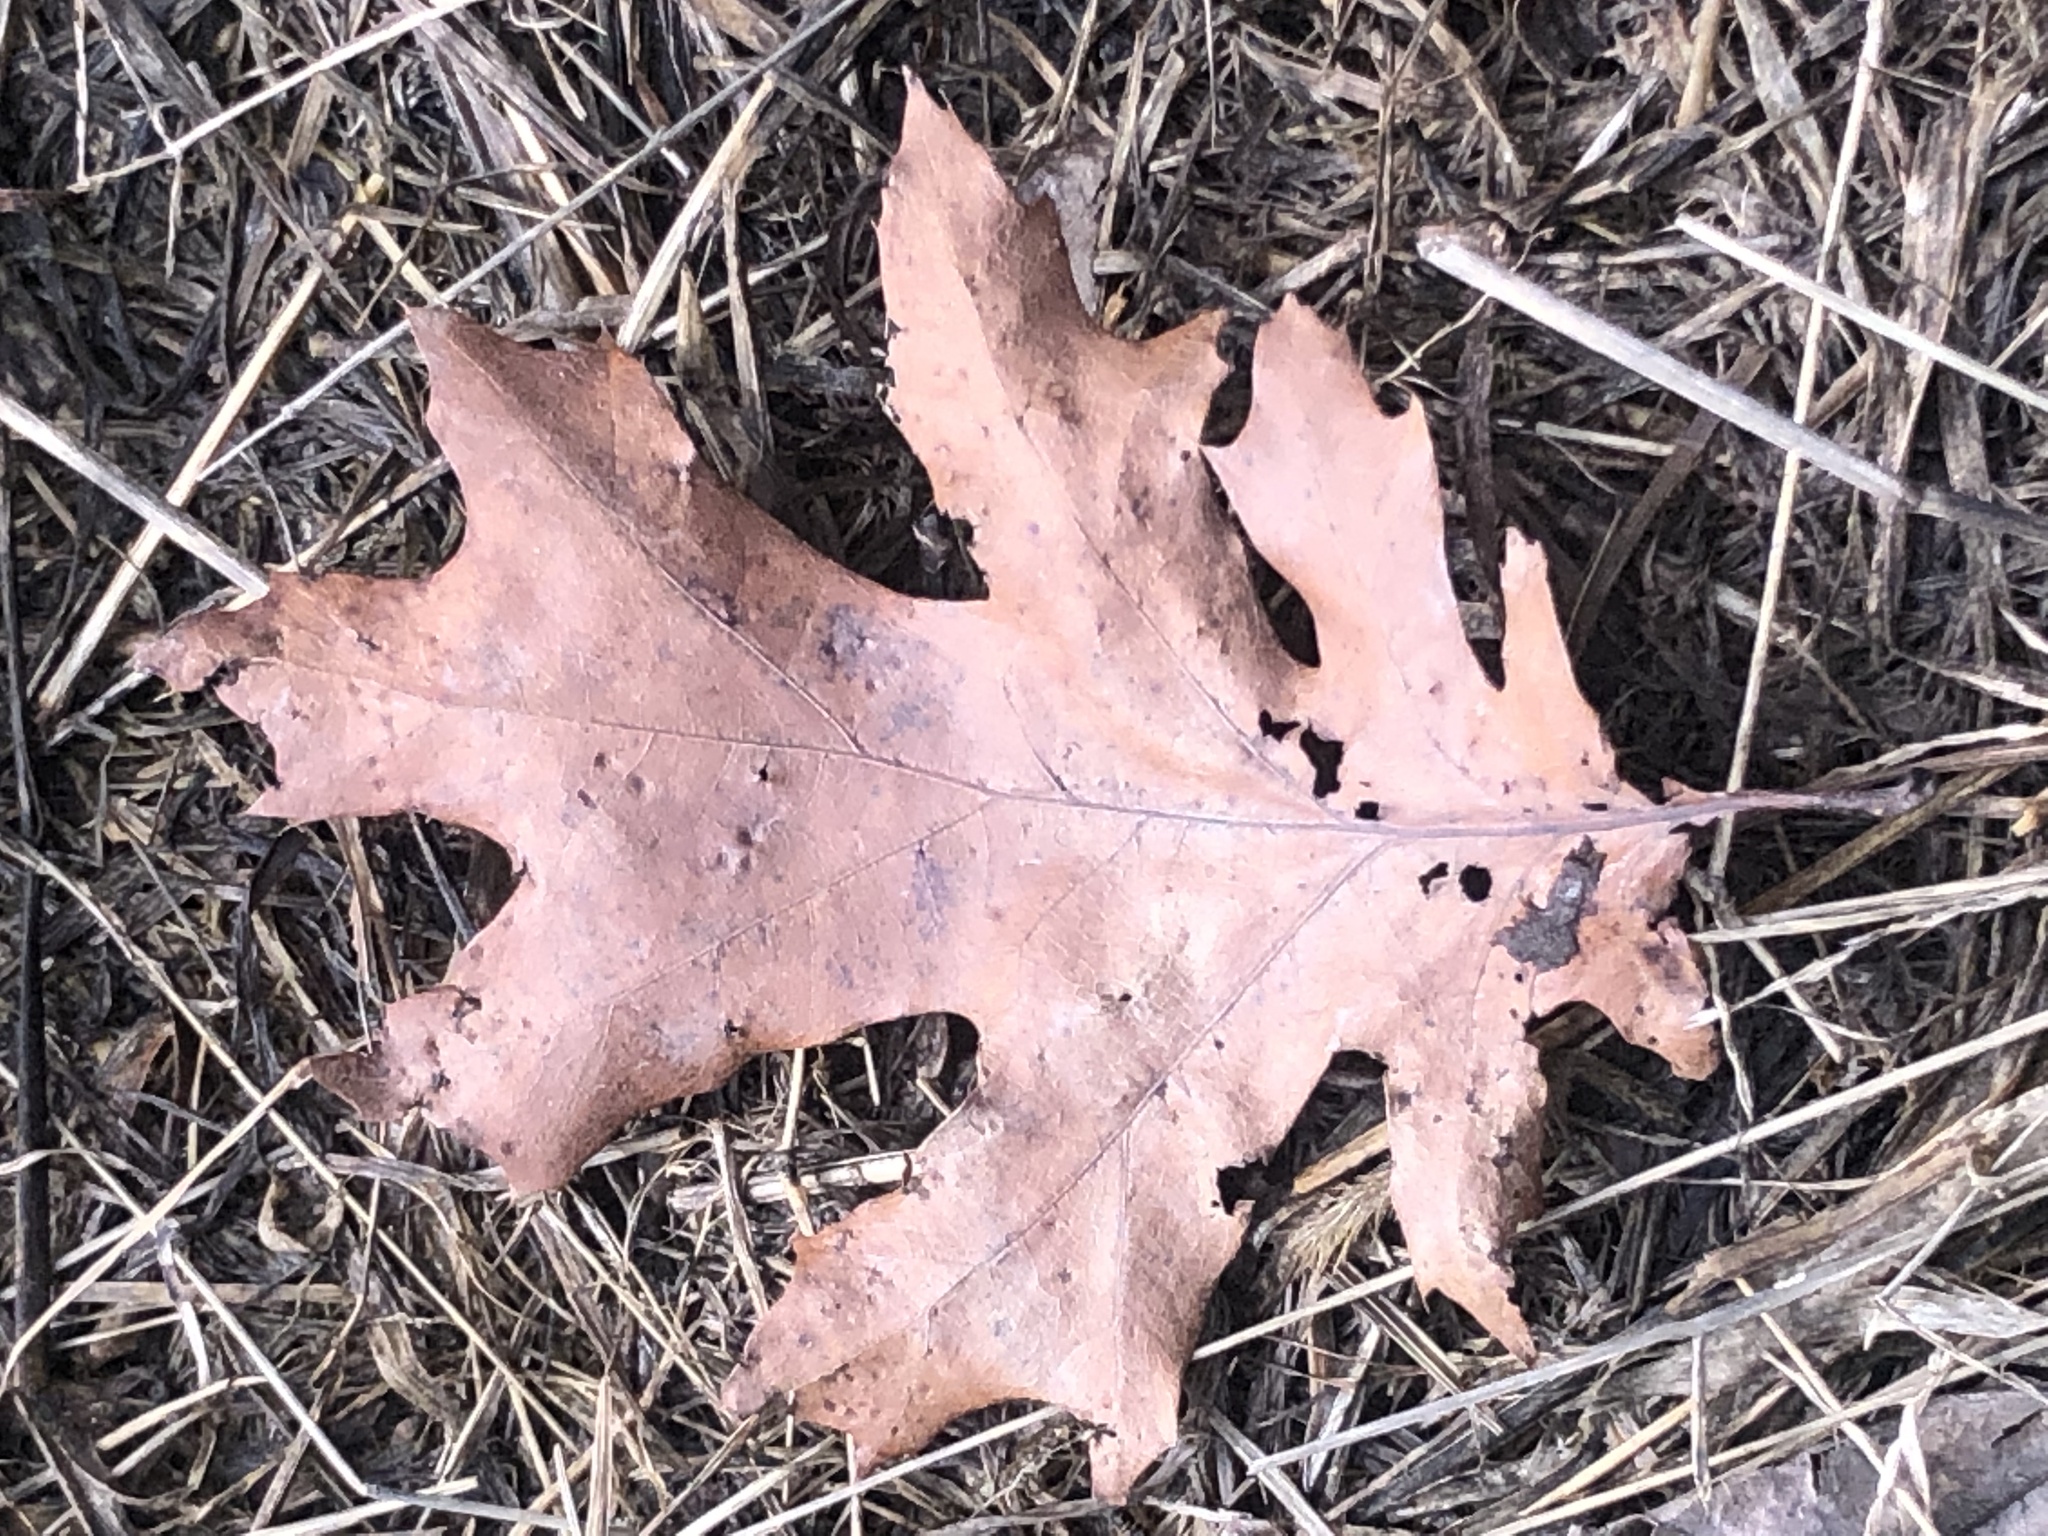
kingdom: Plantae
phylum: Tracheophyta
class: Magnoliopsida
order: Fagales
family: Fagaceae
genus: Quercus
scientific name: Quercus velutina
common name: Black oak
